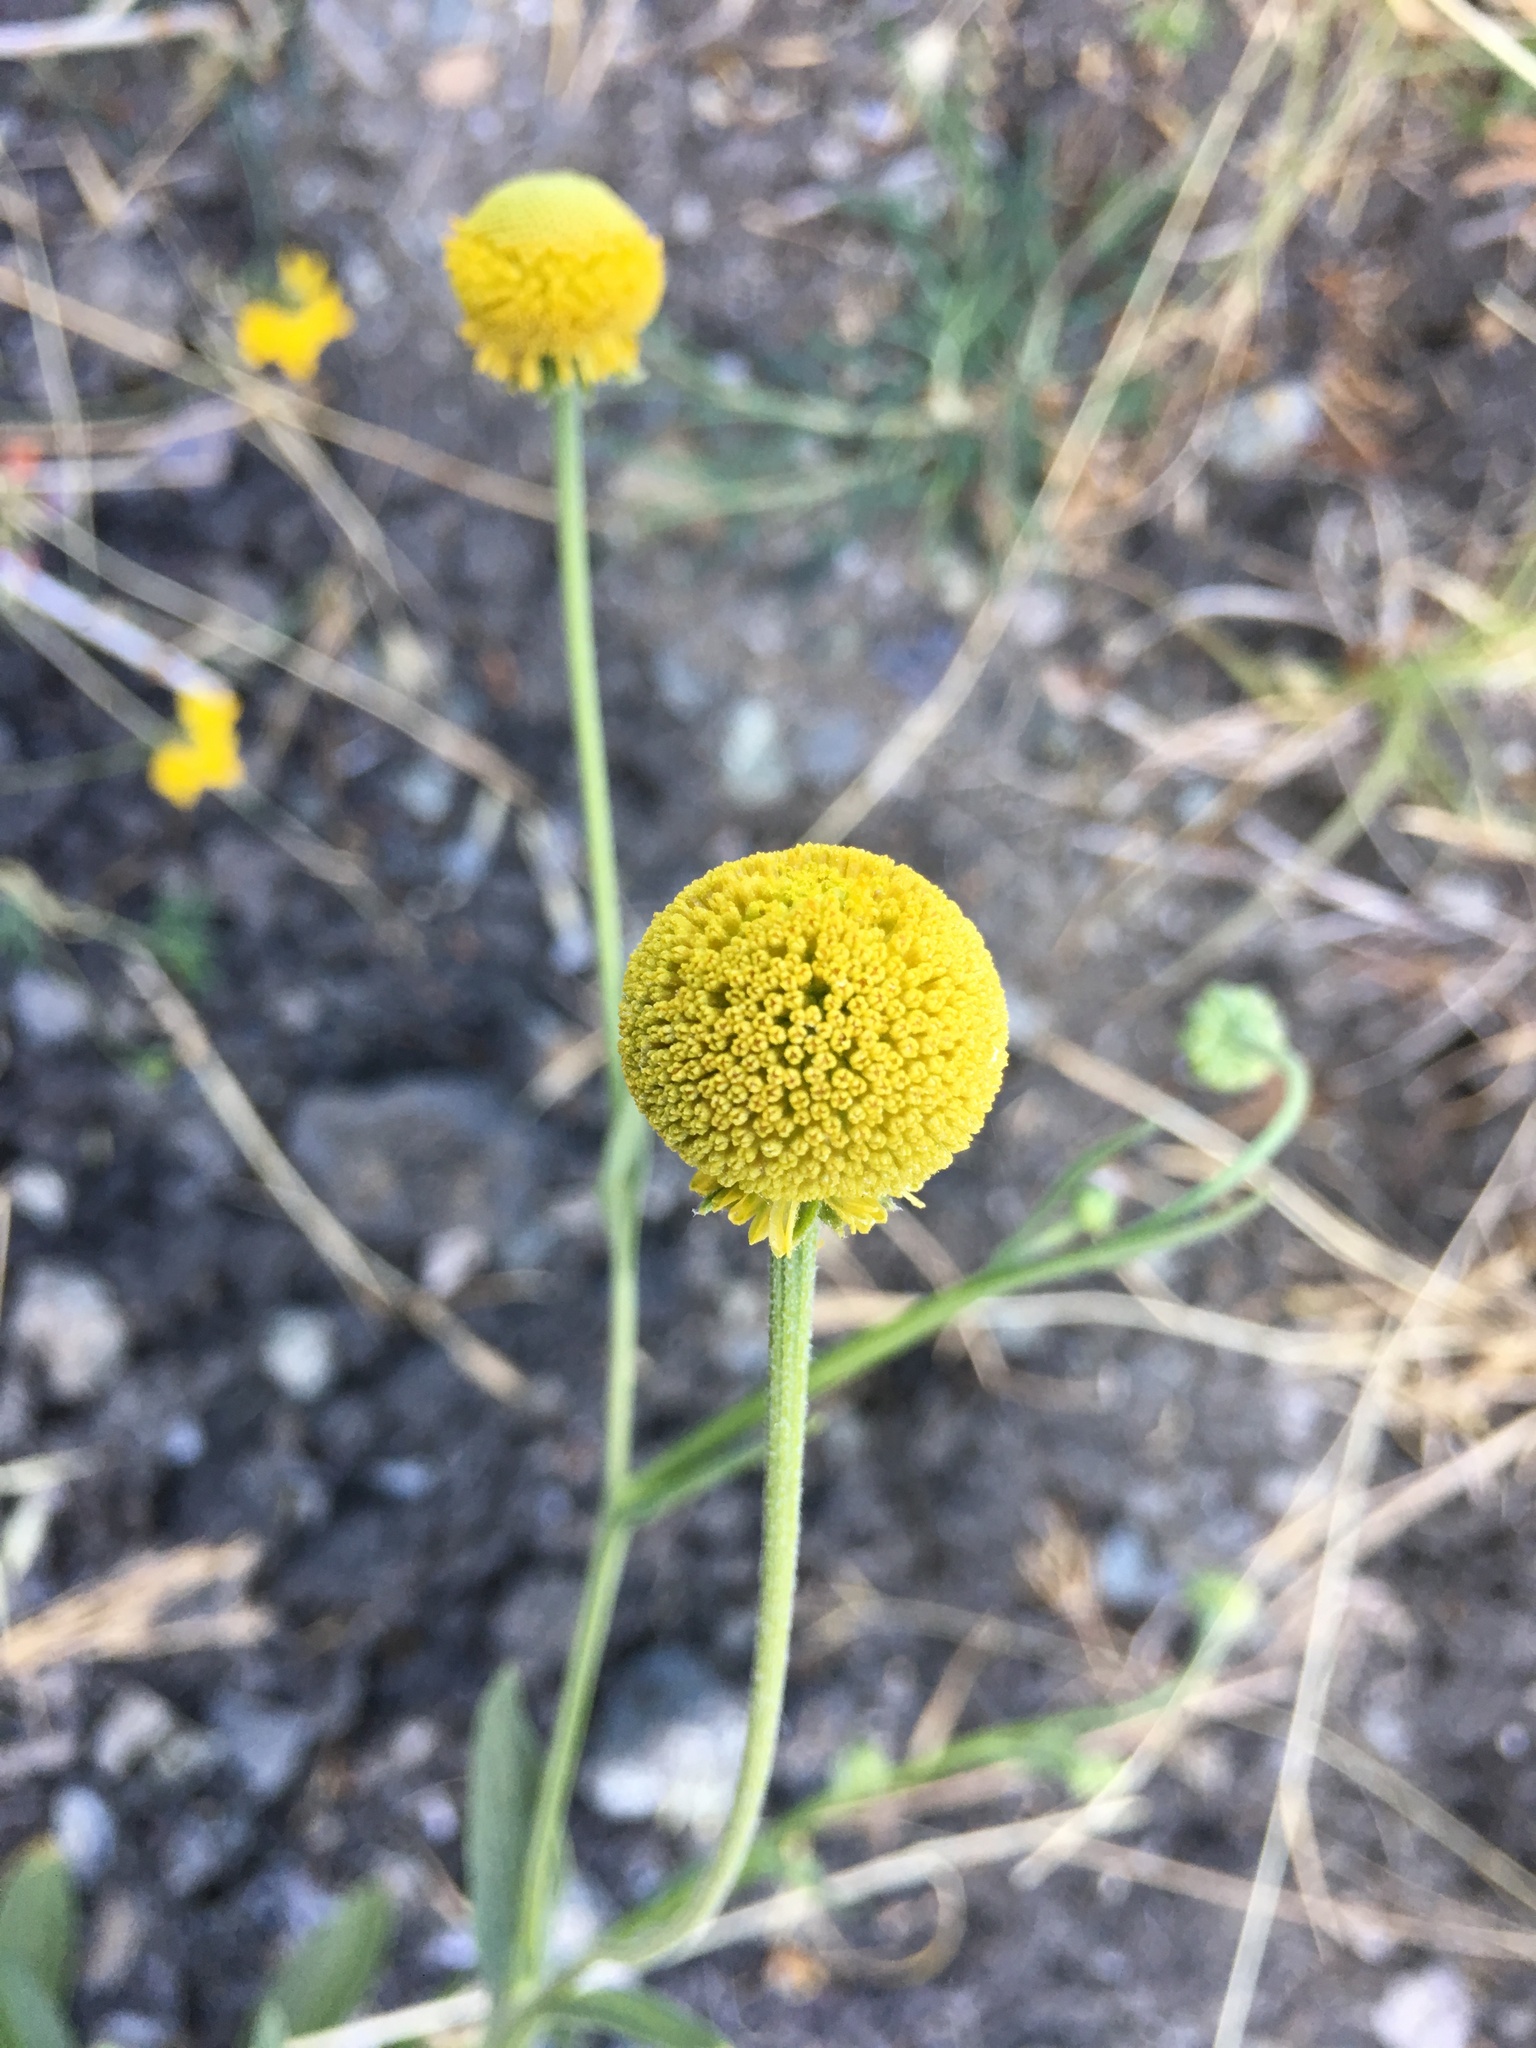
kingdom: Plantae
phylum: Tracheophyta
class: Magnoliopsida
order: Asterales
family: Asteraceae
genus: Helenium
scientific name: Helenium puberulum
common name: Sneezewort
